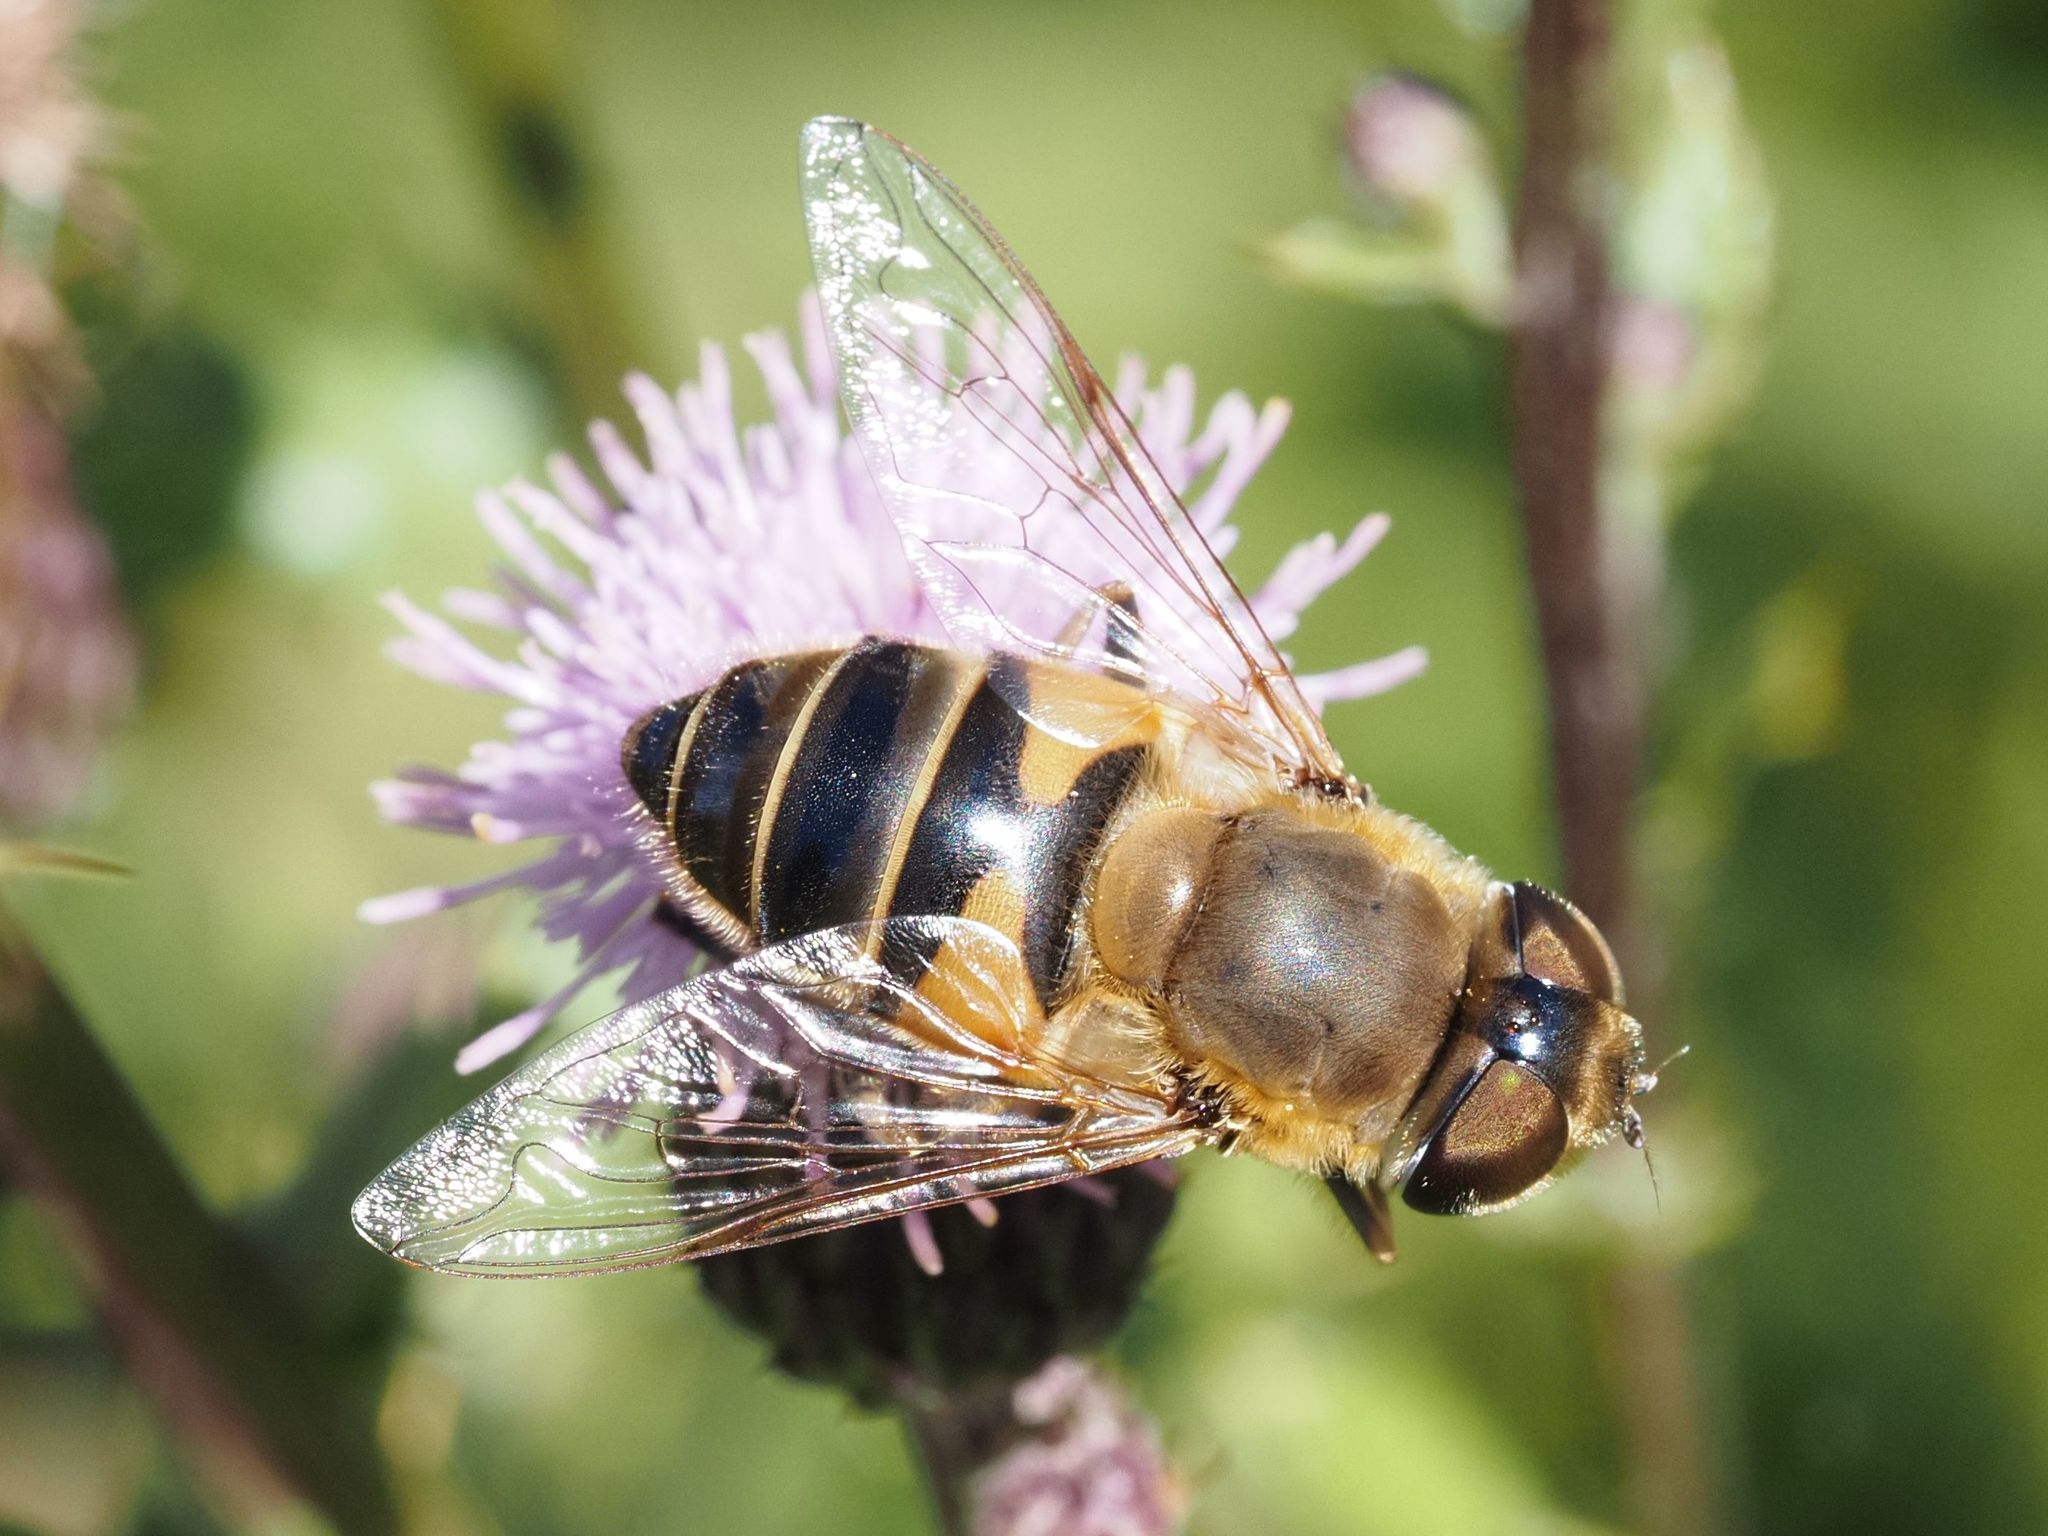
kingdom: Animalia
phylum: Arthropoda
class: Insecta
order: Diptera
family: Syrphidae
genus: Eristalis
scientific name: Eristalis pertinax
